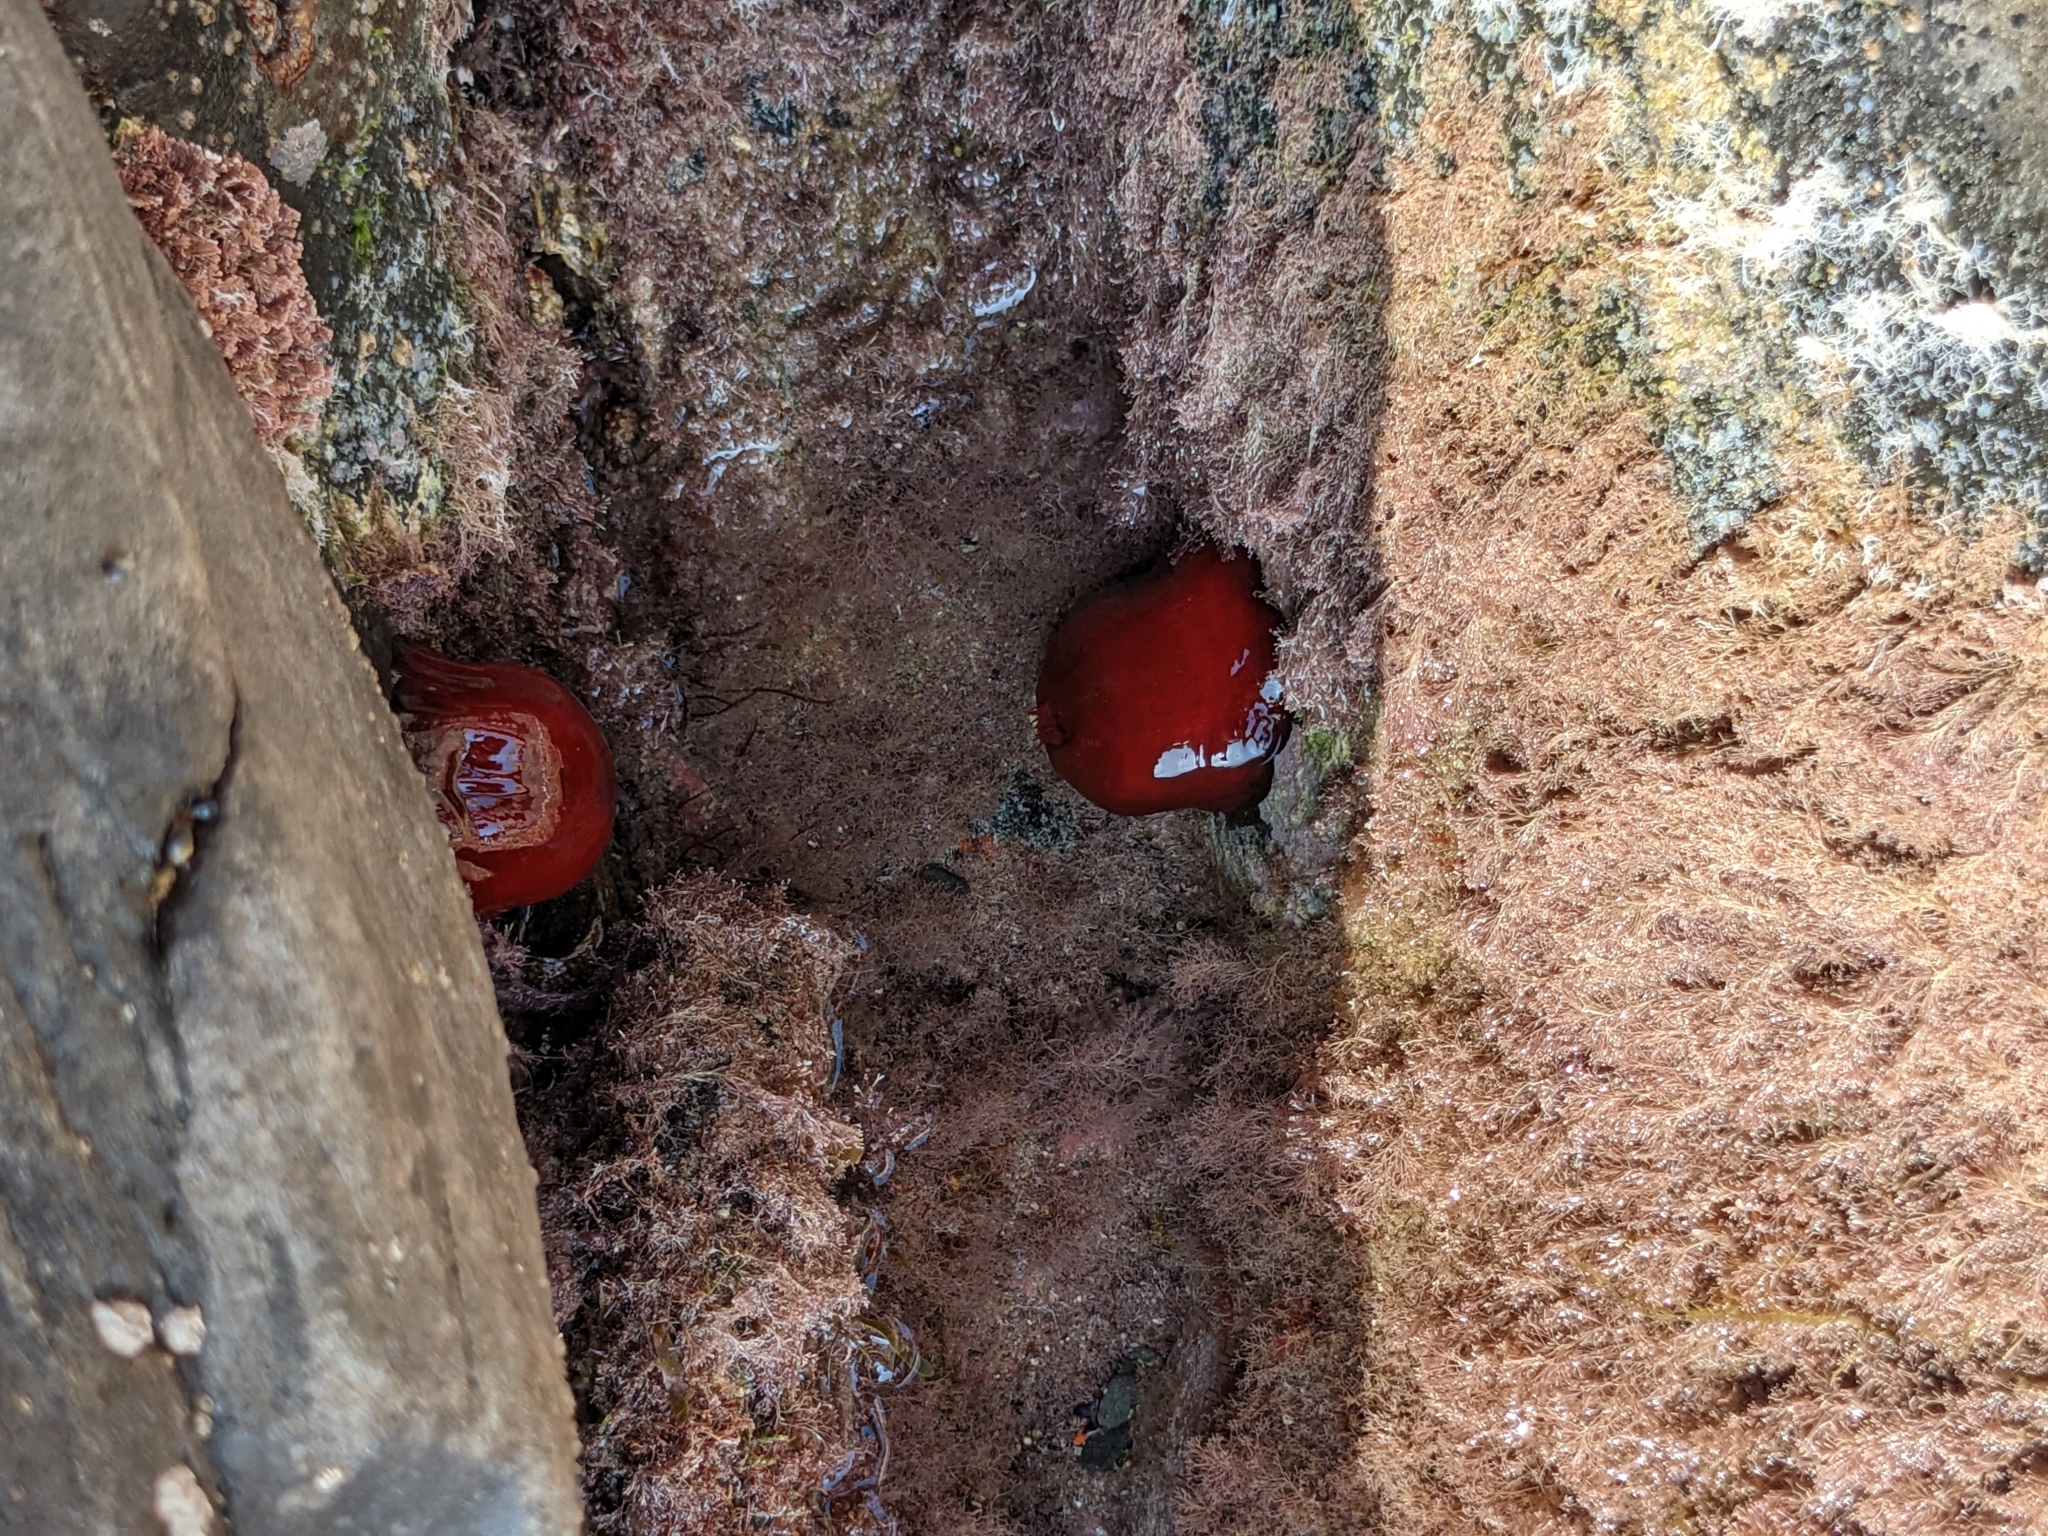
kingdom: Animalia
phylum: Cnidaria
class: Anthozoa
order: Actiniaria
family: Actiniidae
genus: Actinia
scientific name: Actinia mediterranea
